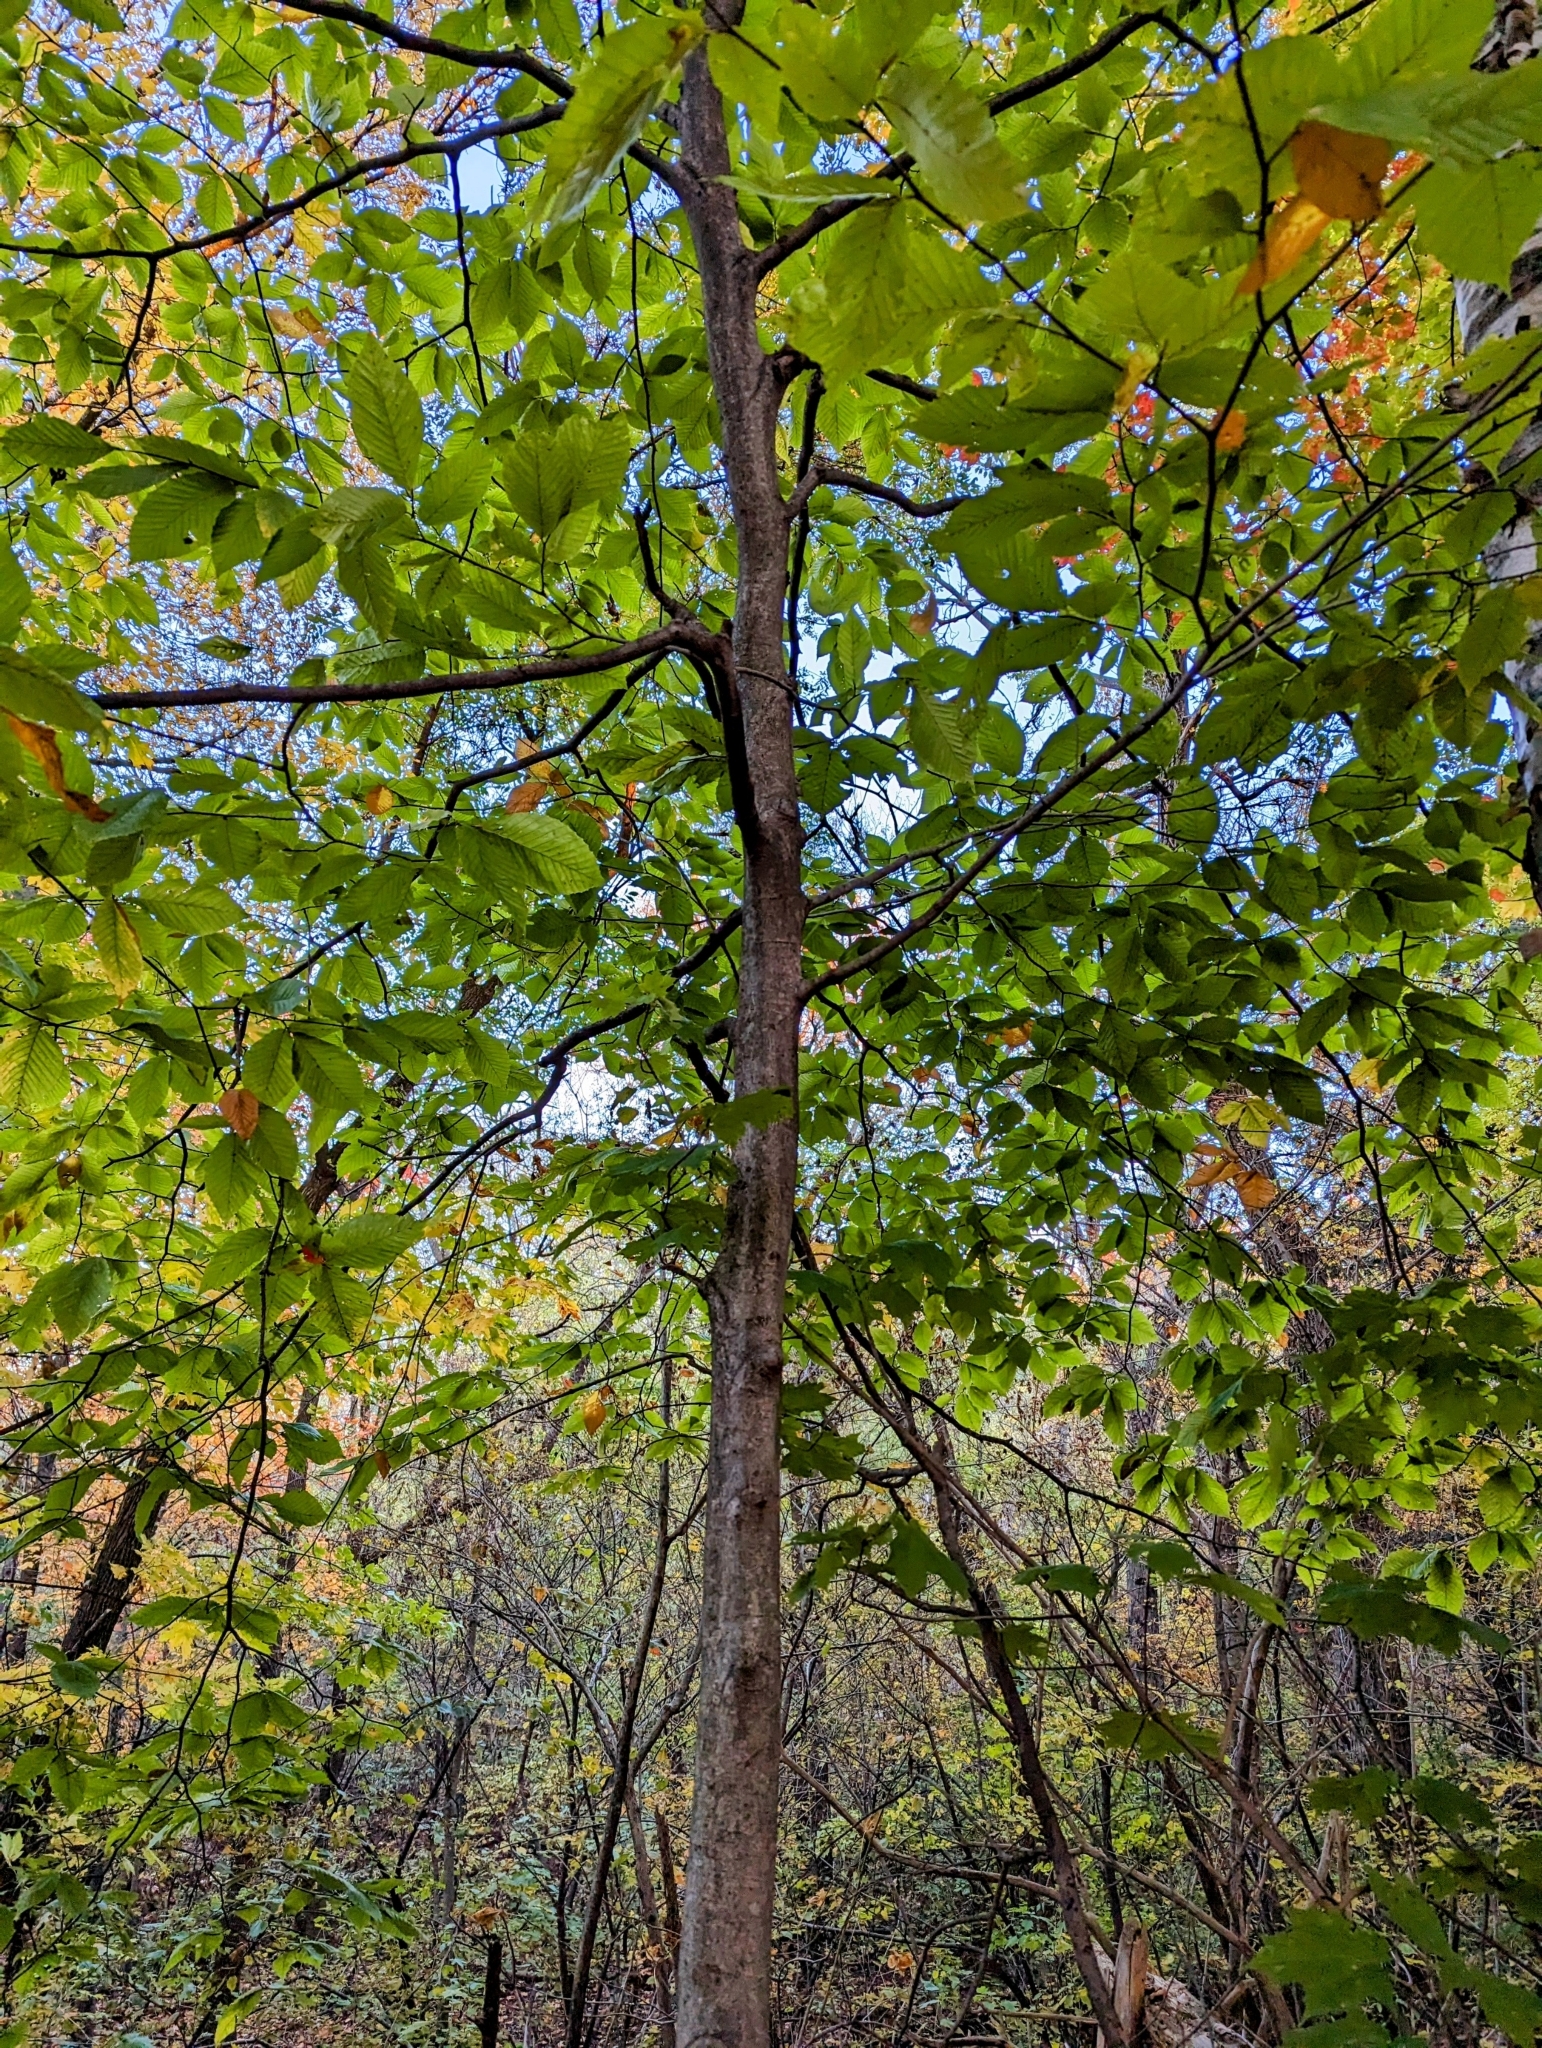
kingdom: Plantae
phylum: Tracheophyta
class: Magnoliopsida
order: Fagales
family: Fagaceae
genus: Fagus
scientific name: Fagus grandifolia
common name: American beech
